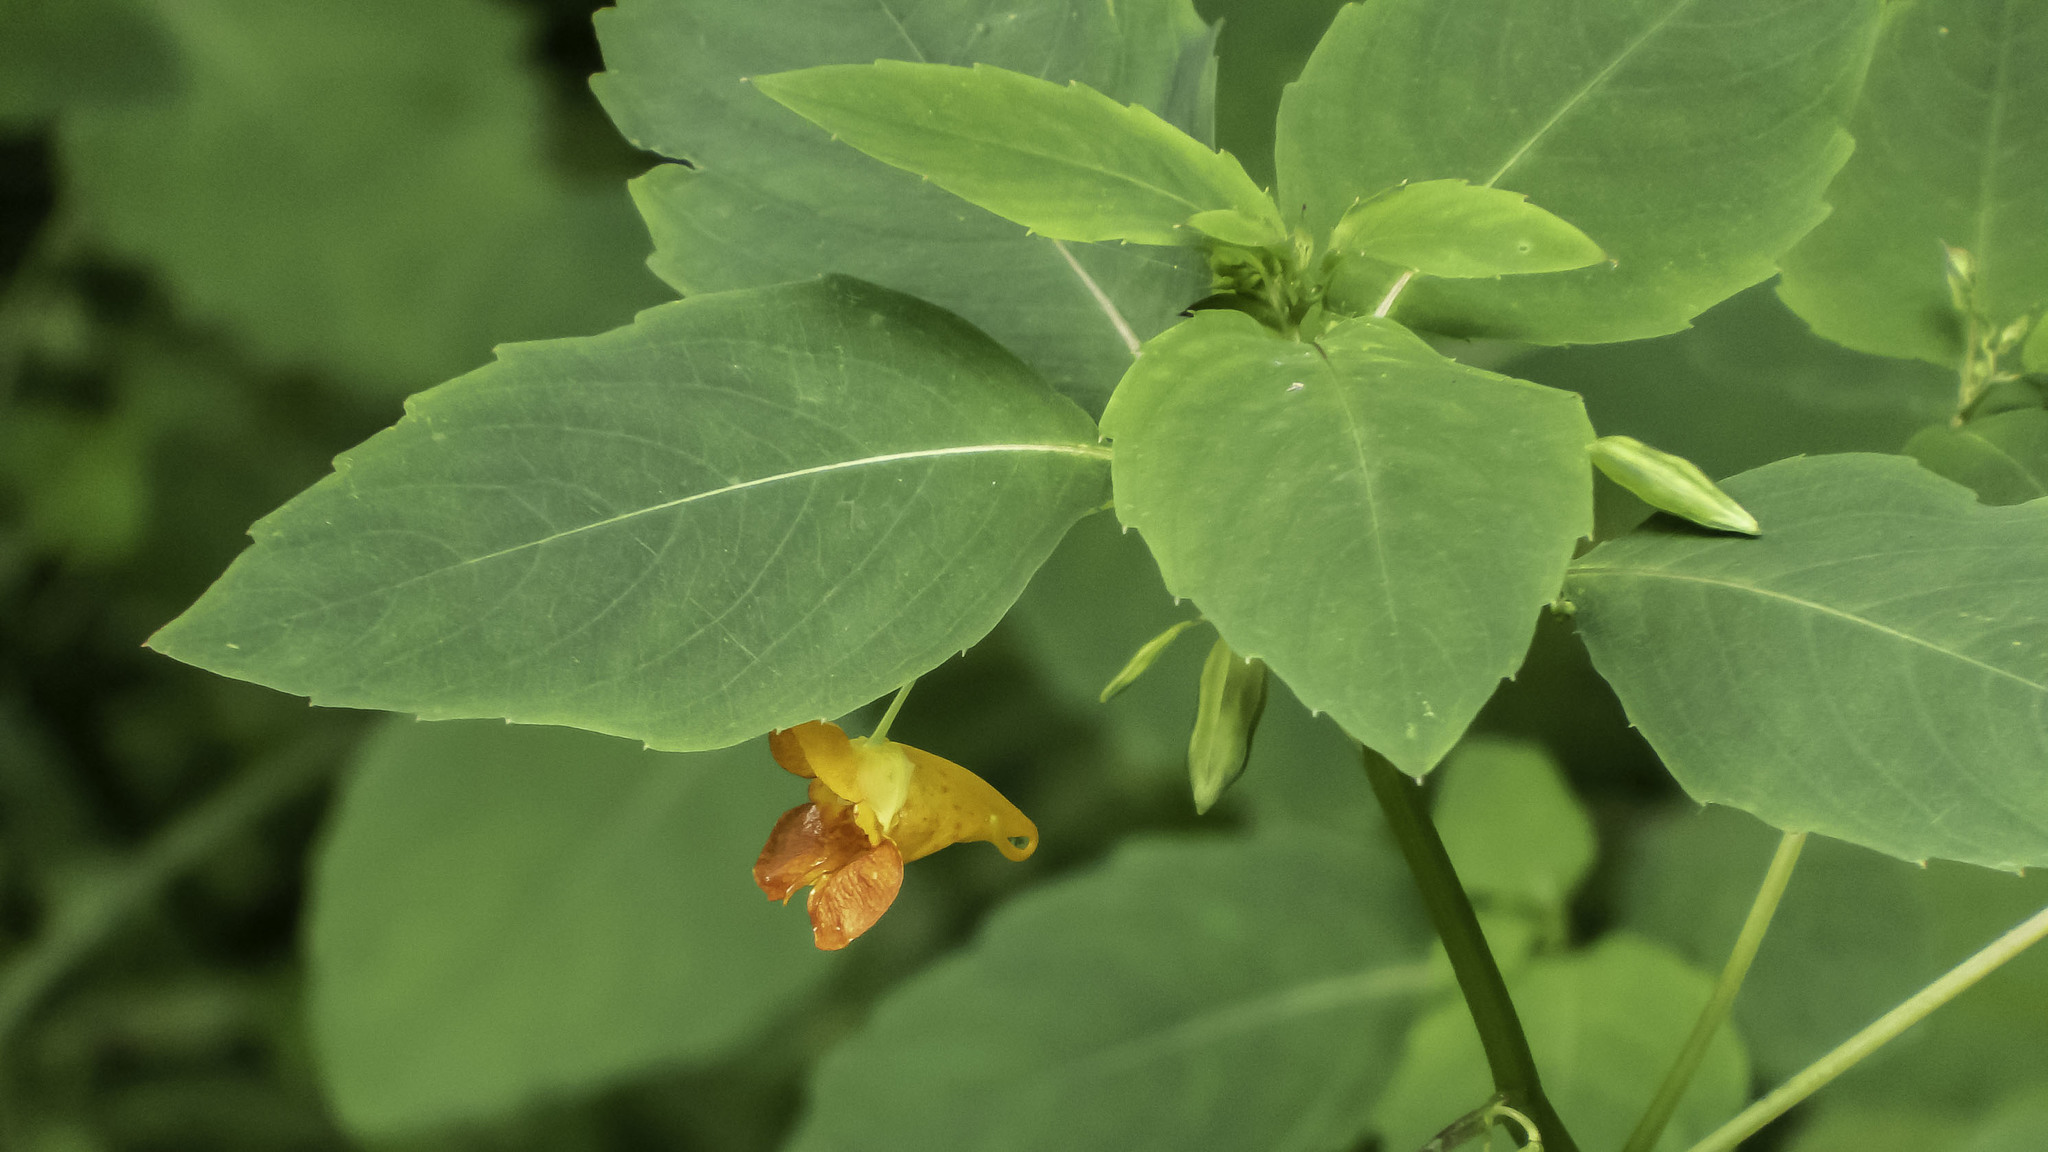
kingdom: Plantae
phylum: Tracheophyta
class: Magnoliopsida
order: Ericales
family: Balsaminaceae
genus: Impatiens
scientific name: Impatiens capensis
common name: Orange balsam
